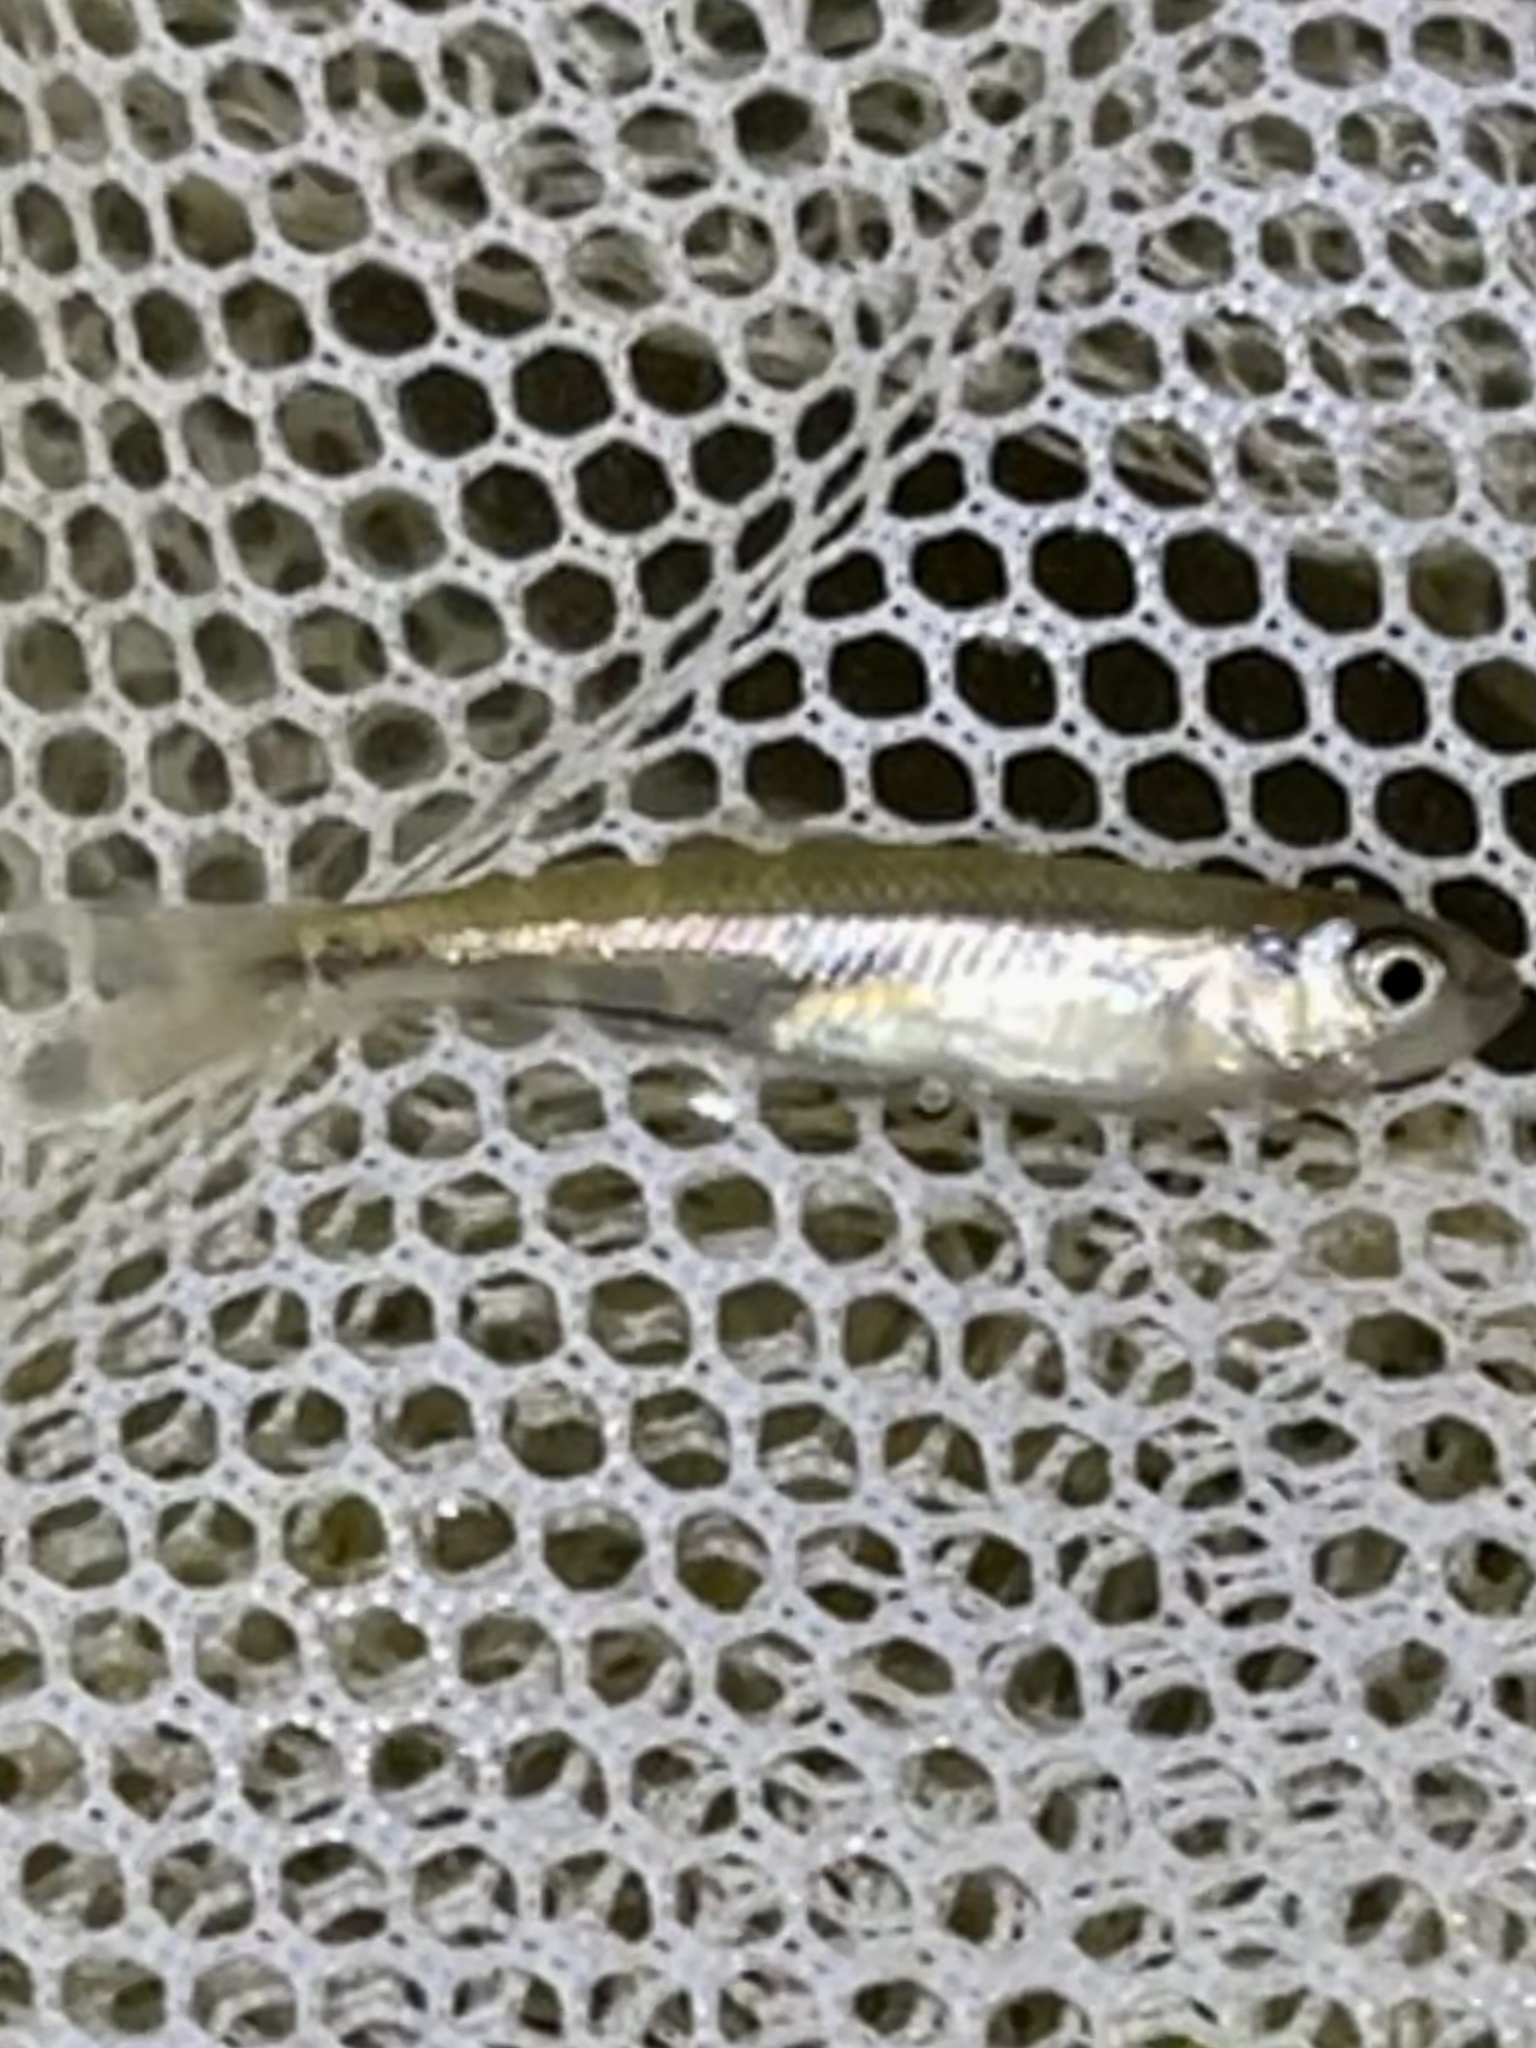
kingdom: Animalia
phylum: Chordata
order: Cypriniformes
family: Cyprinidae
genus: Luxilus
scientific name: Luxilus cornutus
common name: Common shiner
